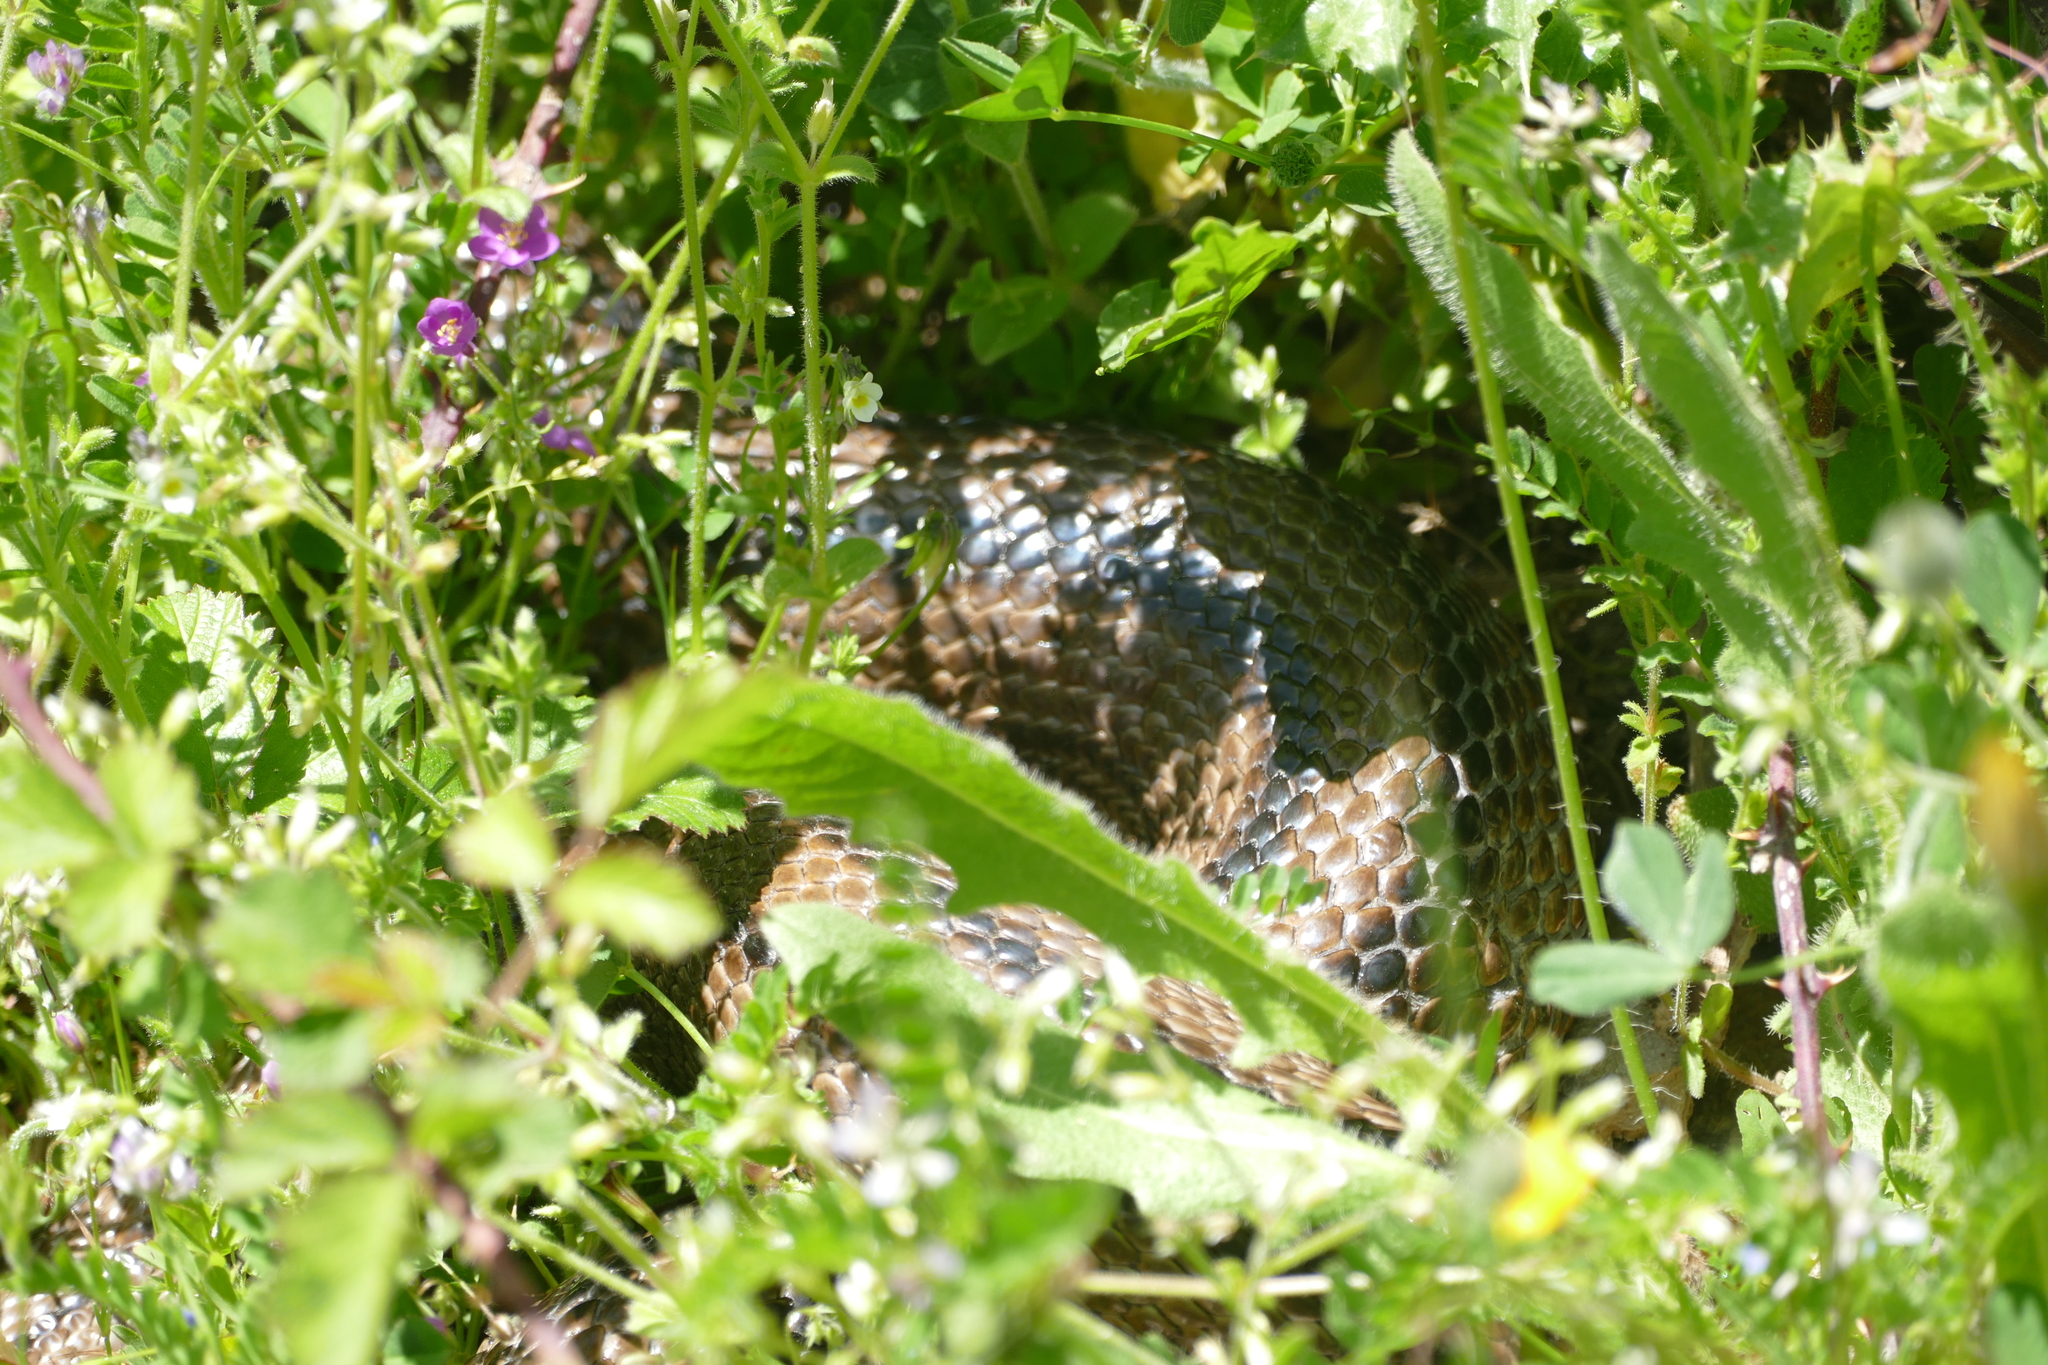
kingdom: Animalia
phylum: Chordata
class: Squamata
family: Colubridae
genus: Zamenis
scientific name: Zamenis scalaris
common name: Ladder snakes
